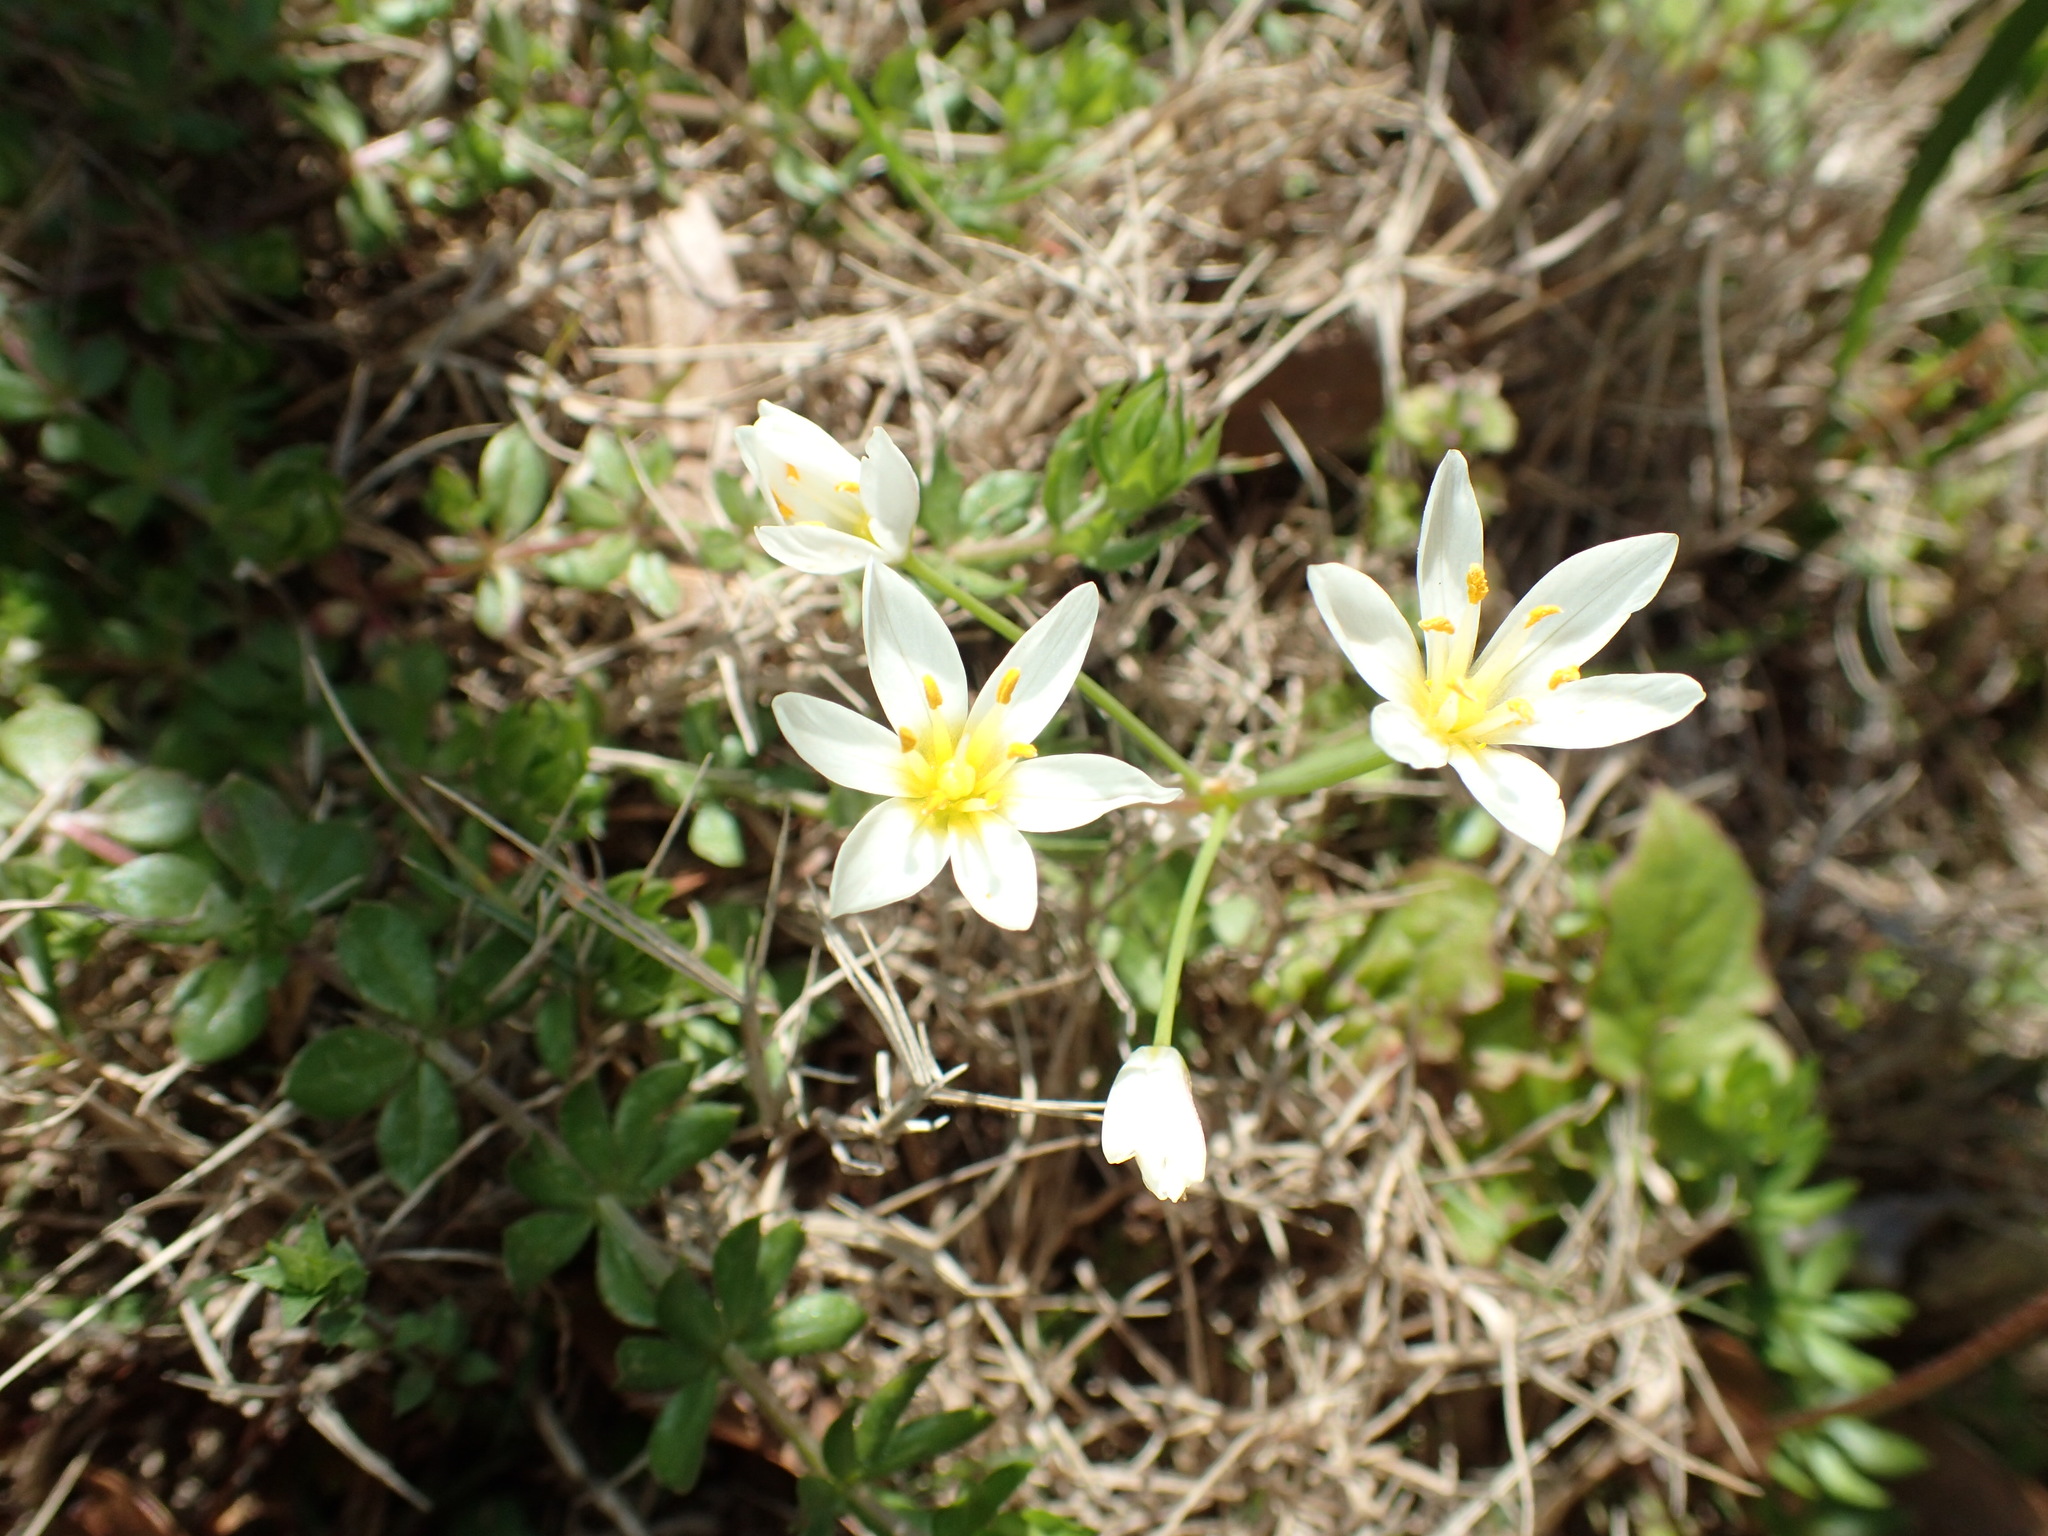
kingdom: Plantae
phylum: Tracheophyta
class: Liliopsida
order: Asparagales
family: Amaryllidaceae
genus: Nothoscordum
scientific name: Nothoscordum bivalve
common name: Crow-poison
